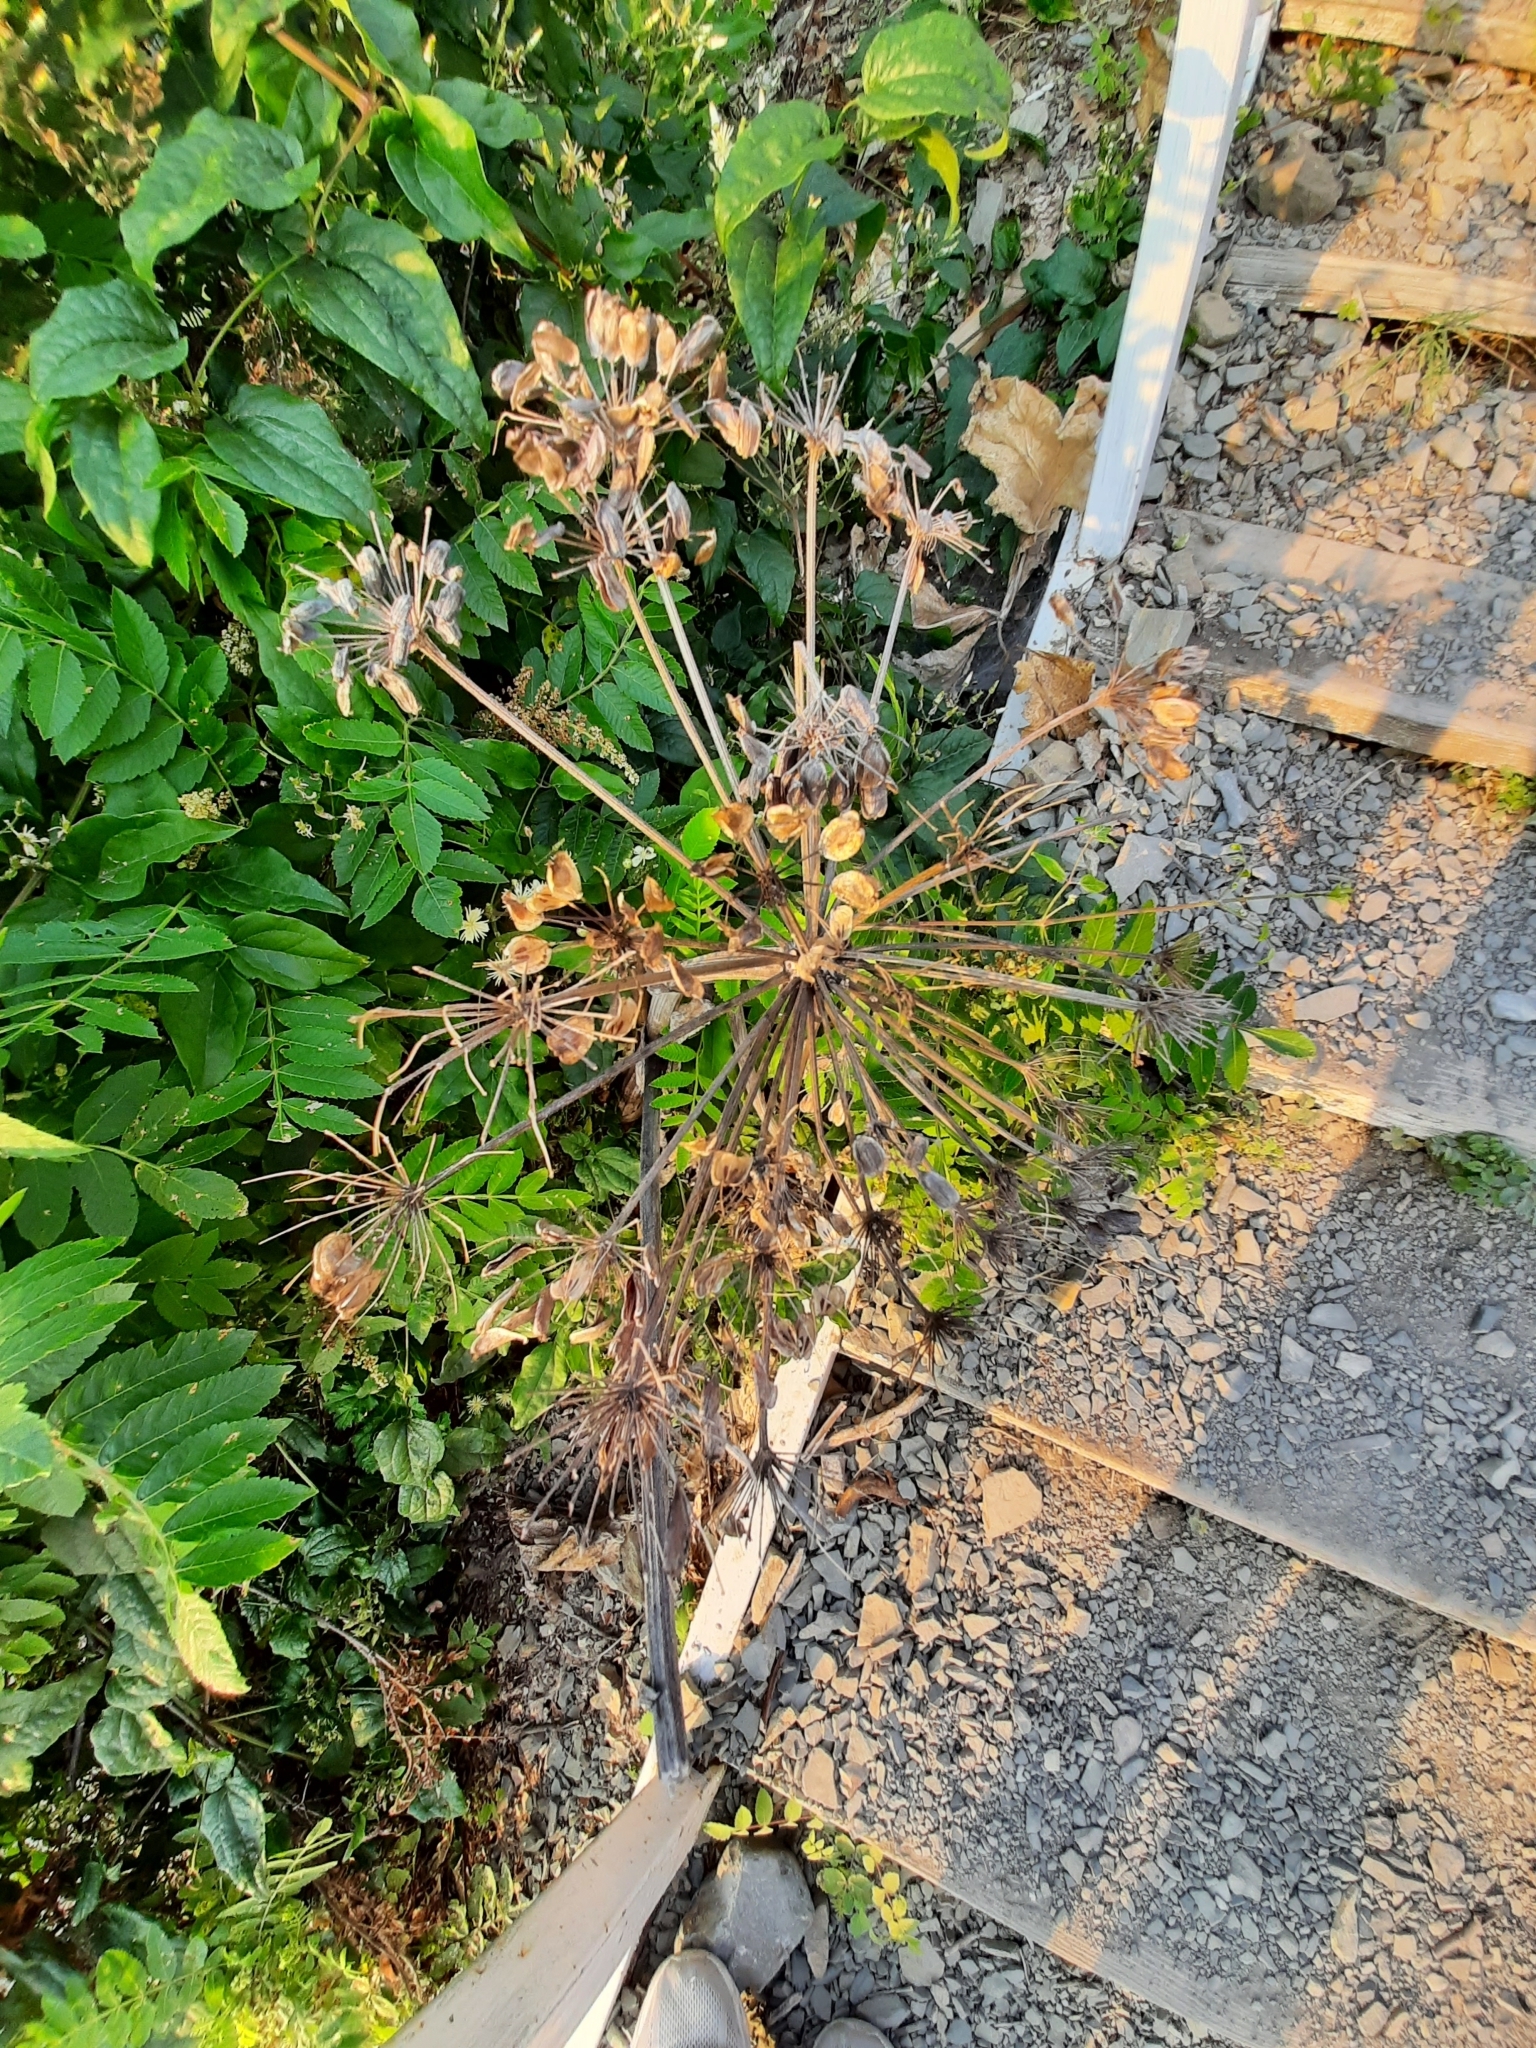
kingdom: Plantae
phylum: Tracheophyta
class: Magnoliopsida
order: Apiales
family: Apiaceae
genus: Heracleum
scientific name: Heracleum stevenii
